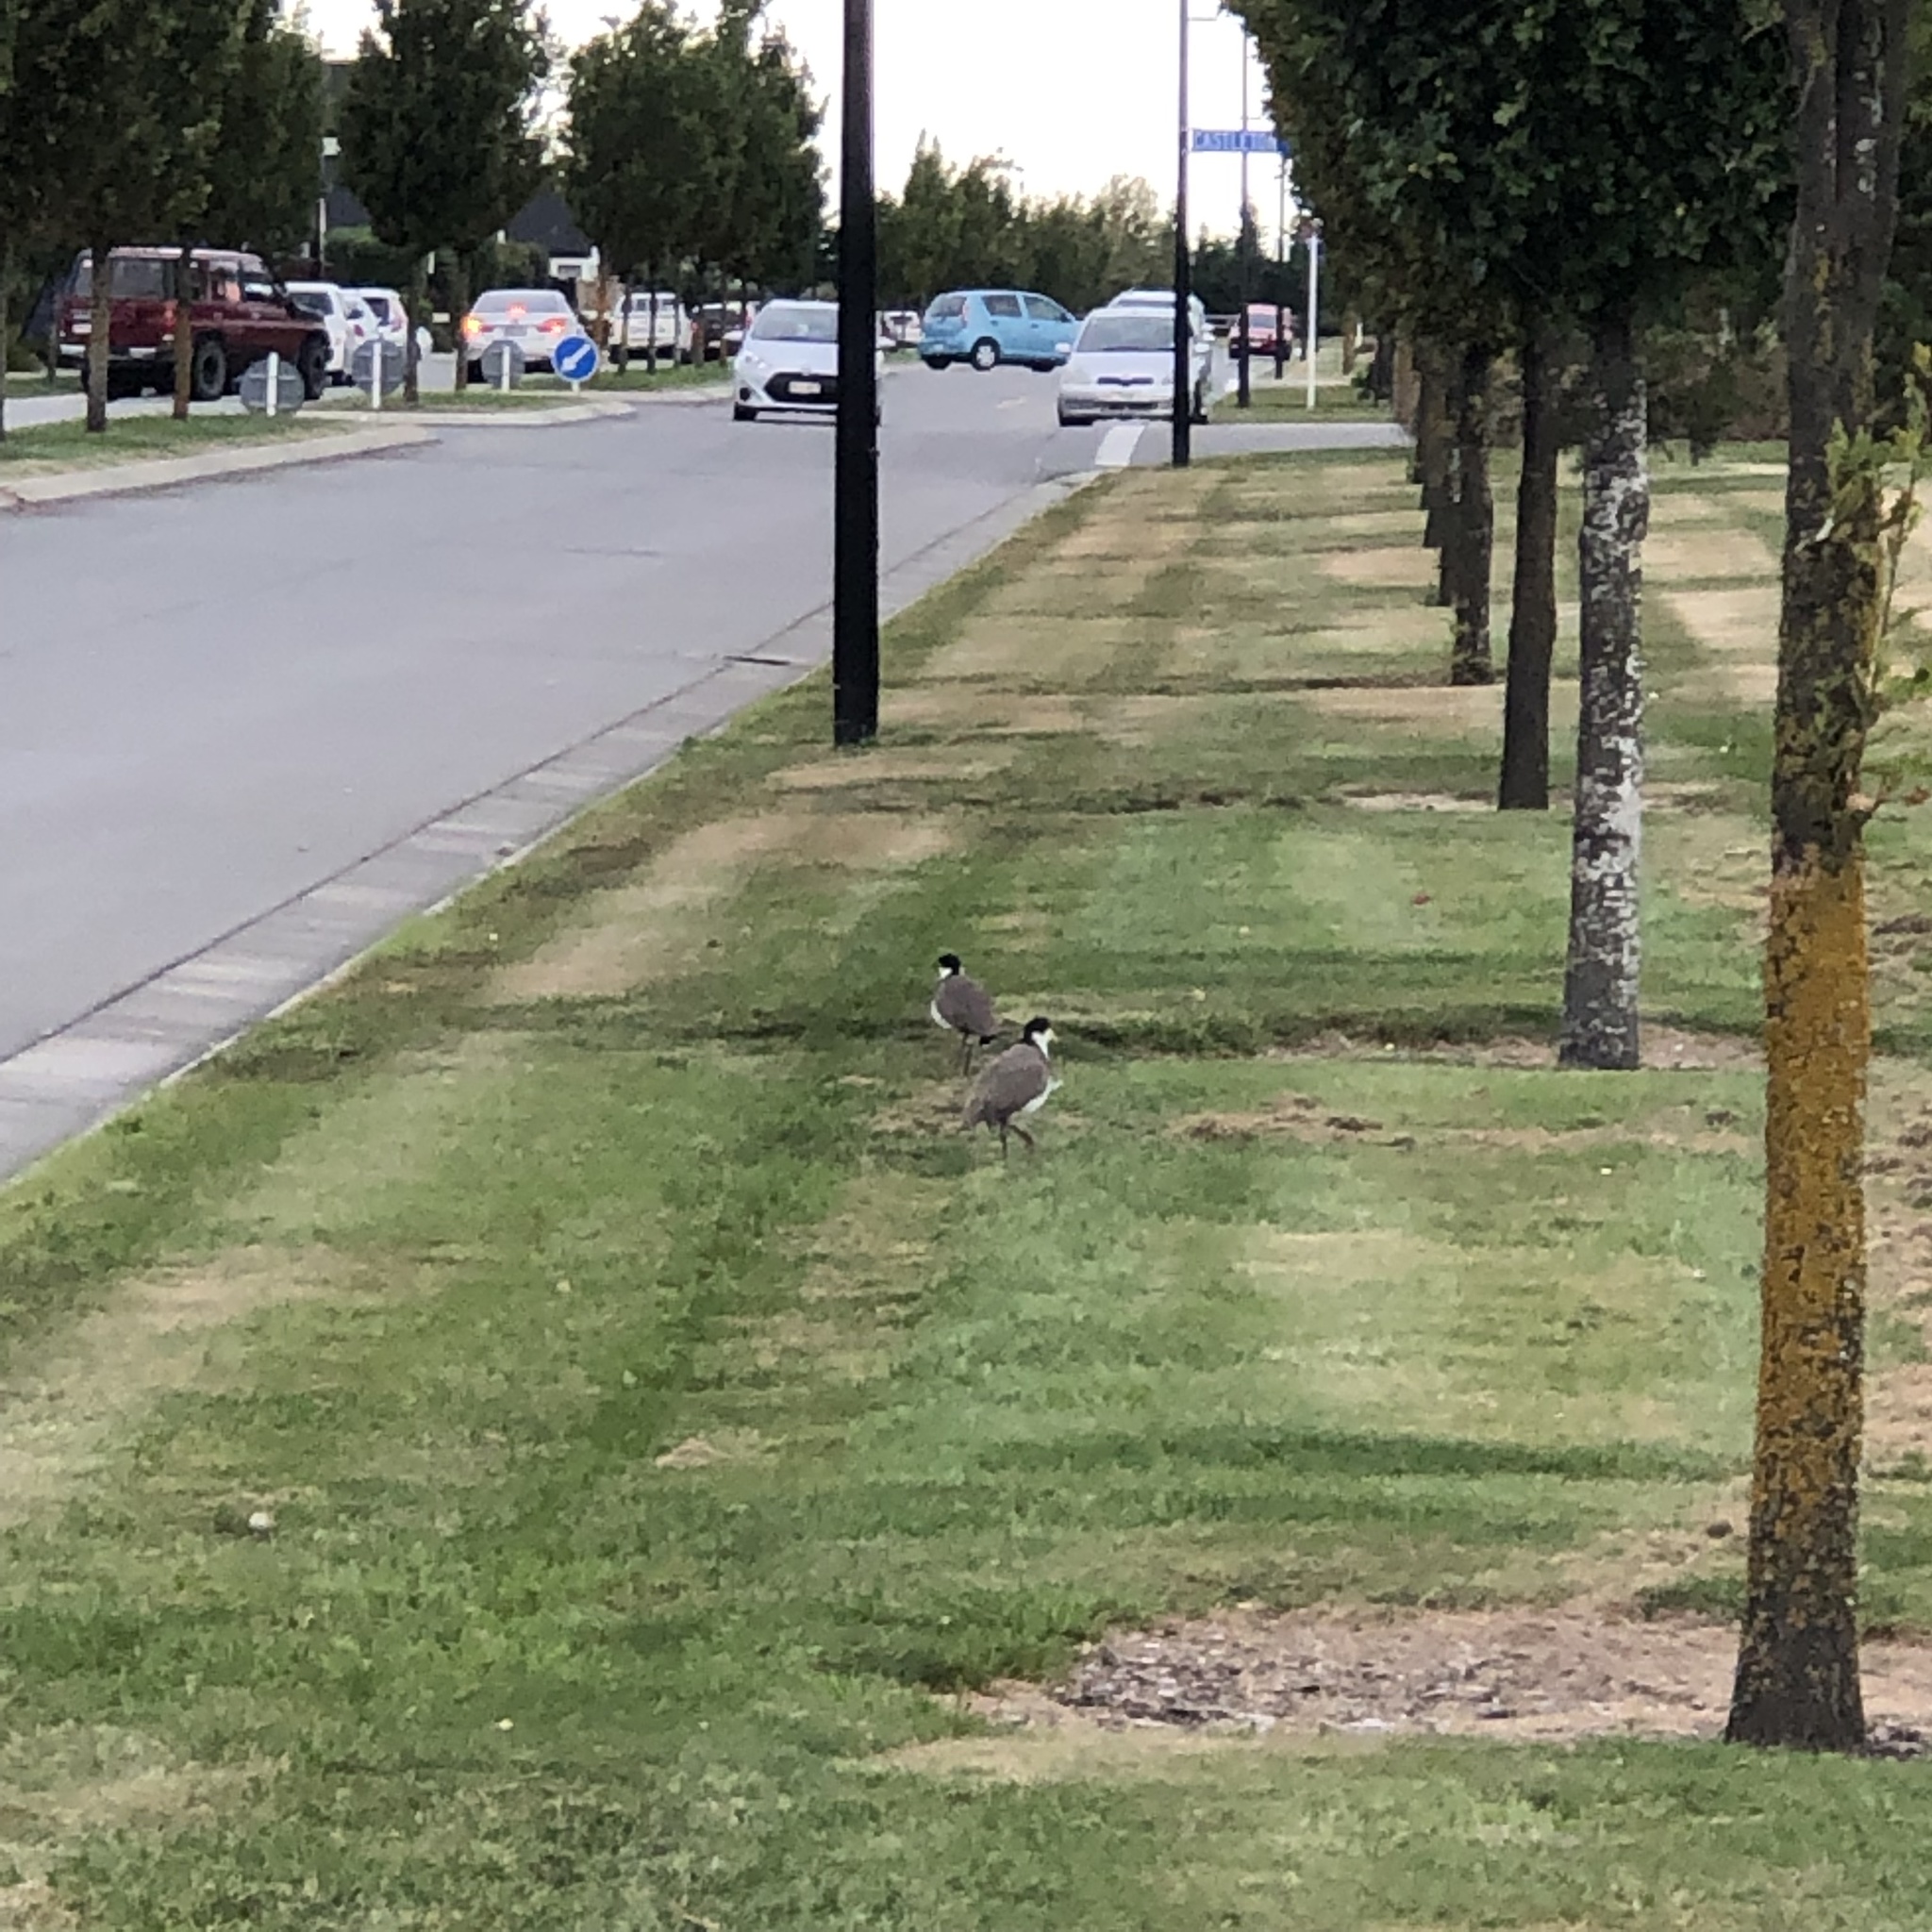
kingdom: Animalia
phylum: Chordata
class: Aves
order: Charadriiformes
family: Charadriidae
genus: Vanellus
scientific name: Vanellus miles
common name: Masked lapwing
